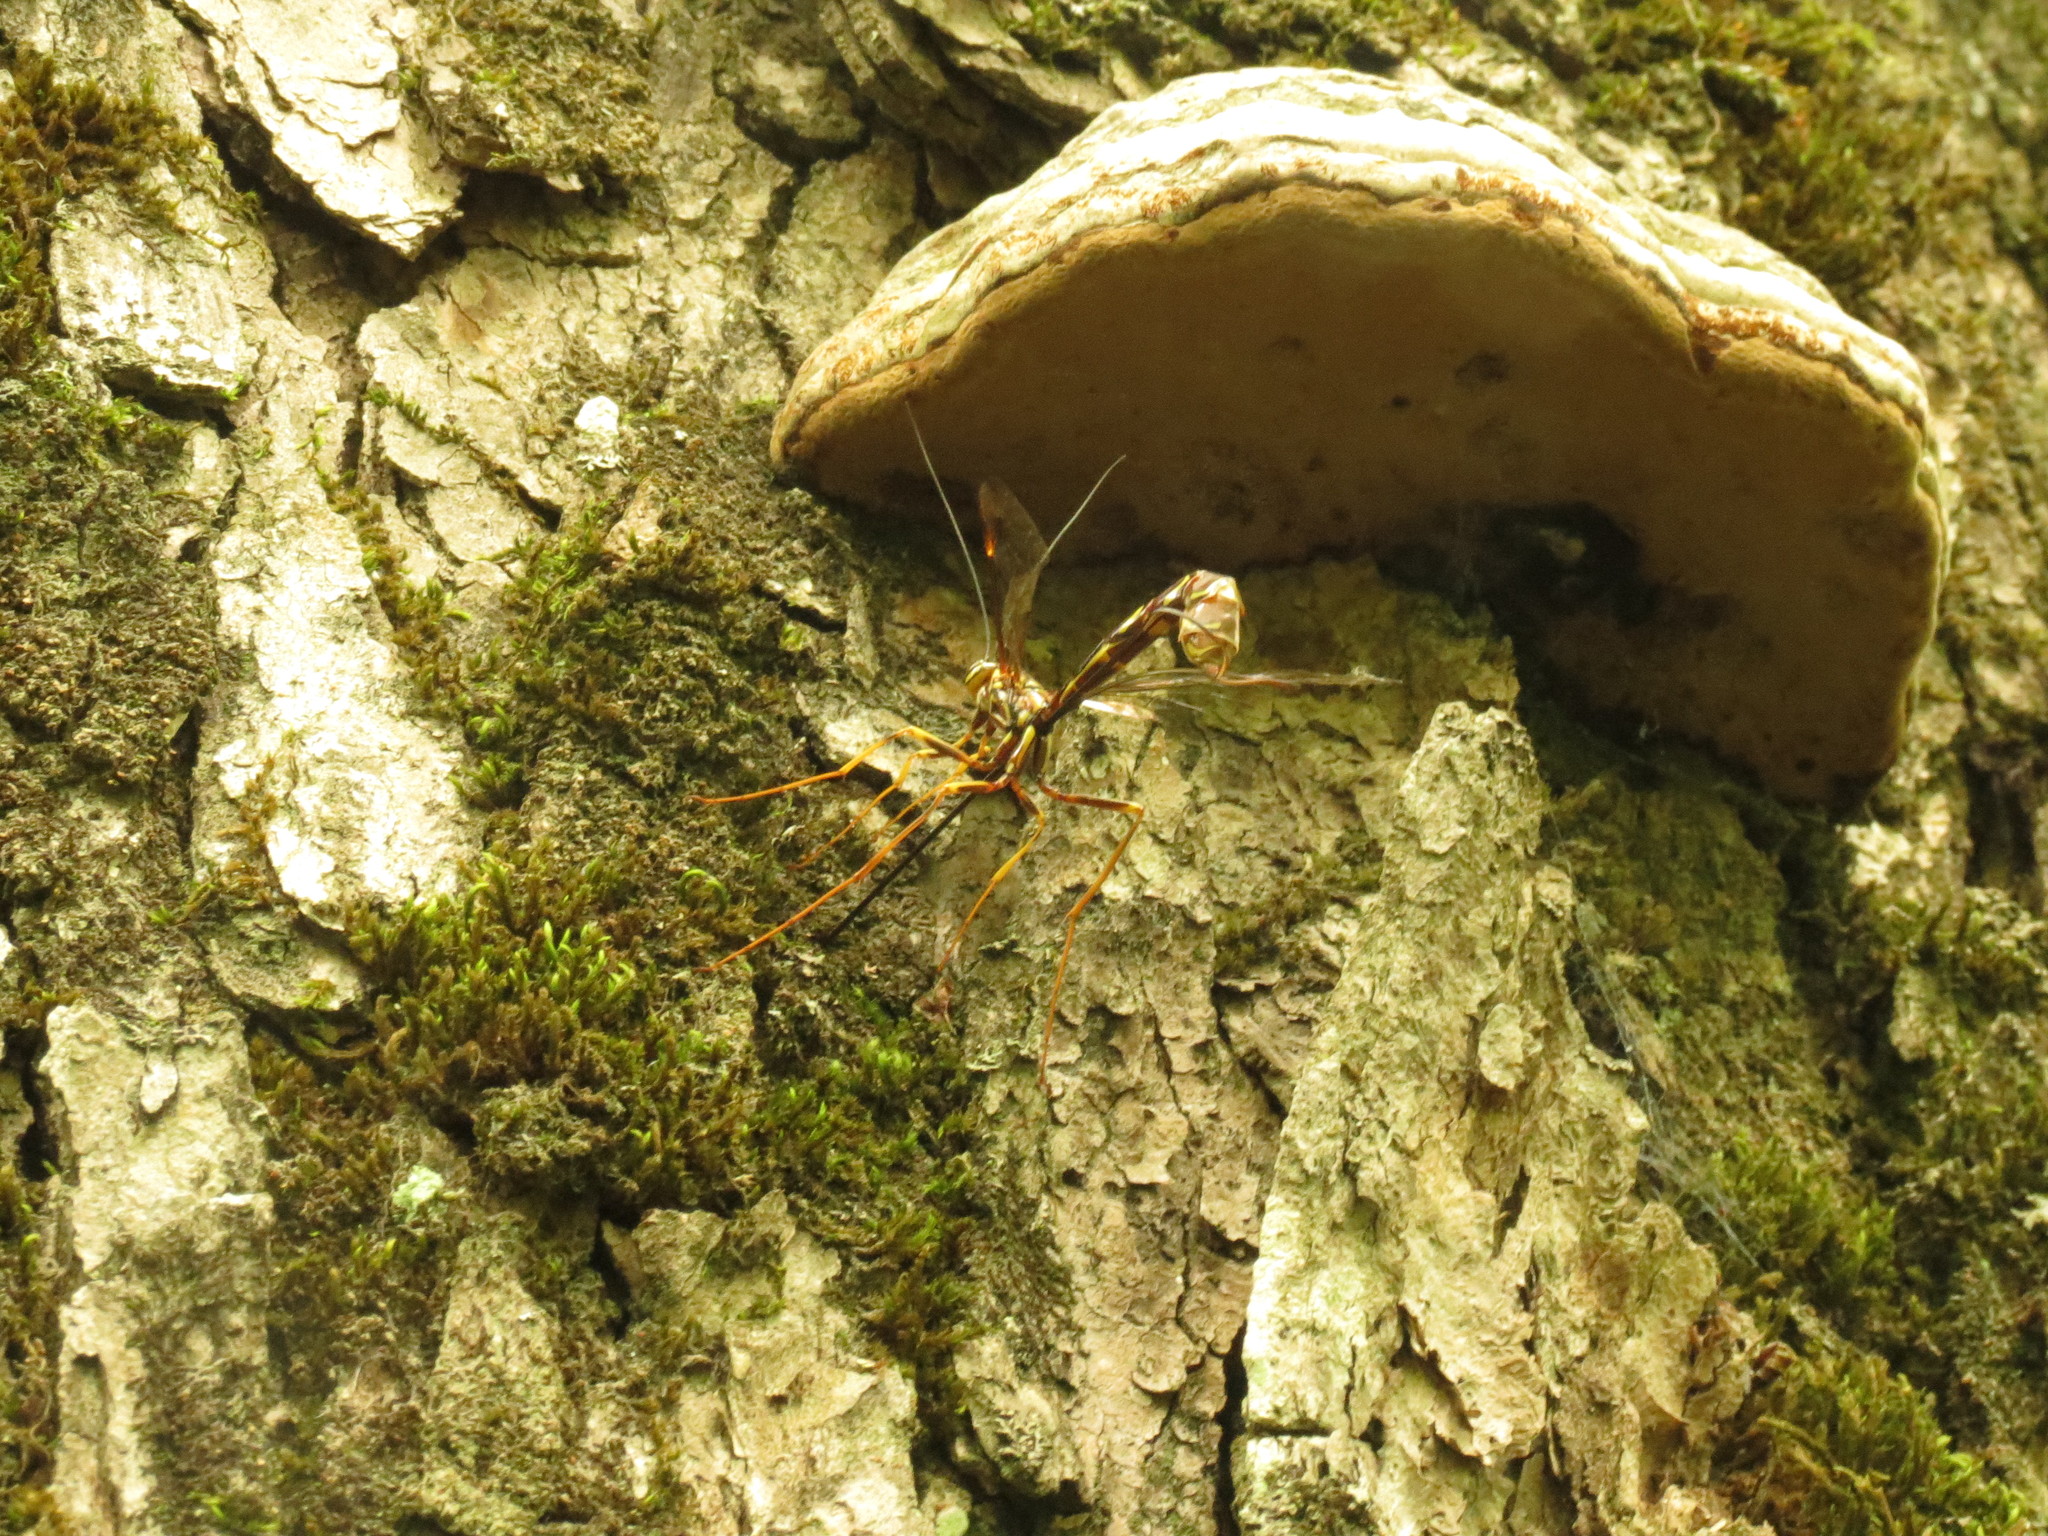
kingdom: Animalia
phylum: Arthropoda
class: Insecta
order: Hymenoptera
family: Ichneumonidae
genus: Megarhyssa
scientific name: Megarhyssa macrura
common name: Long-tailed giant ichneumonid wasp
